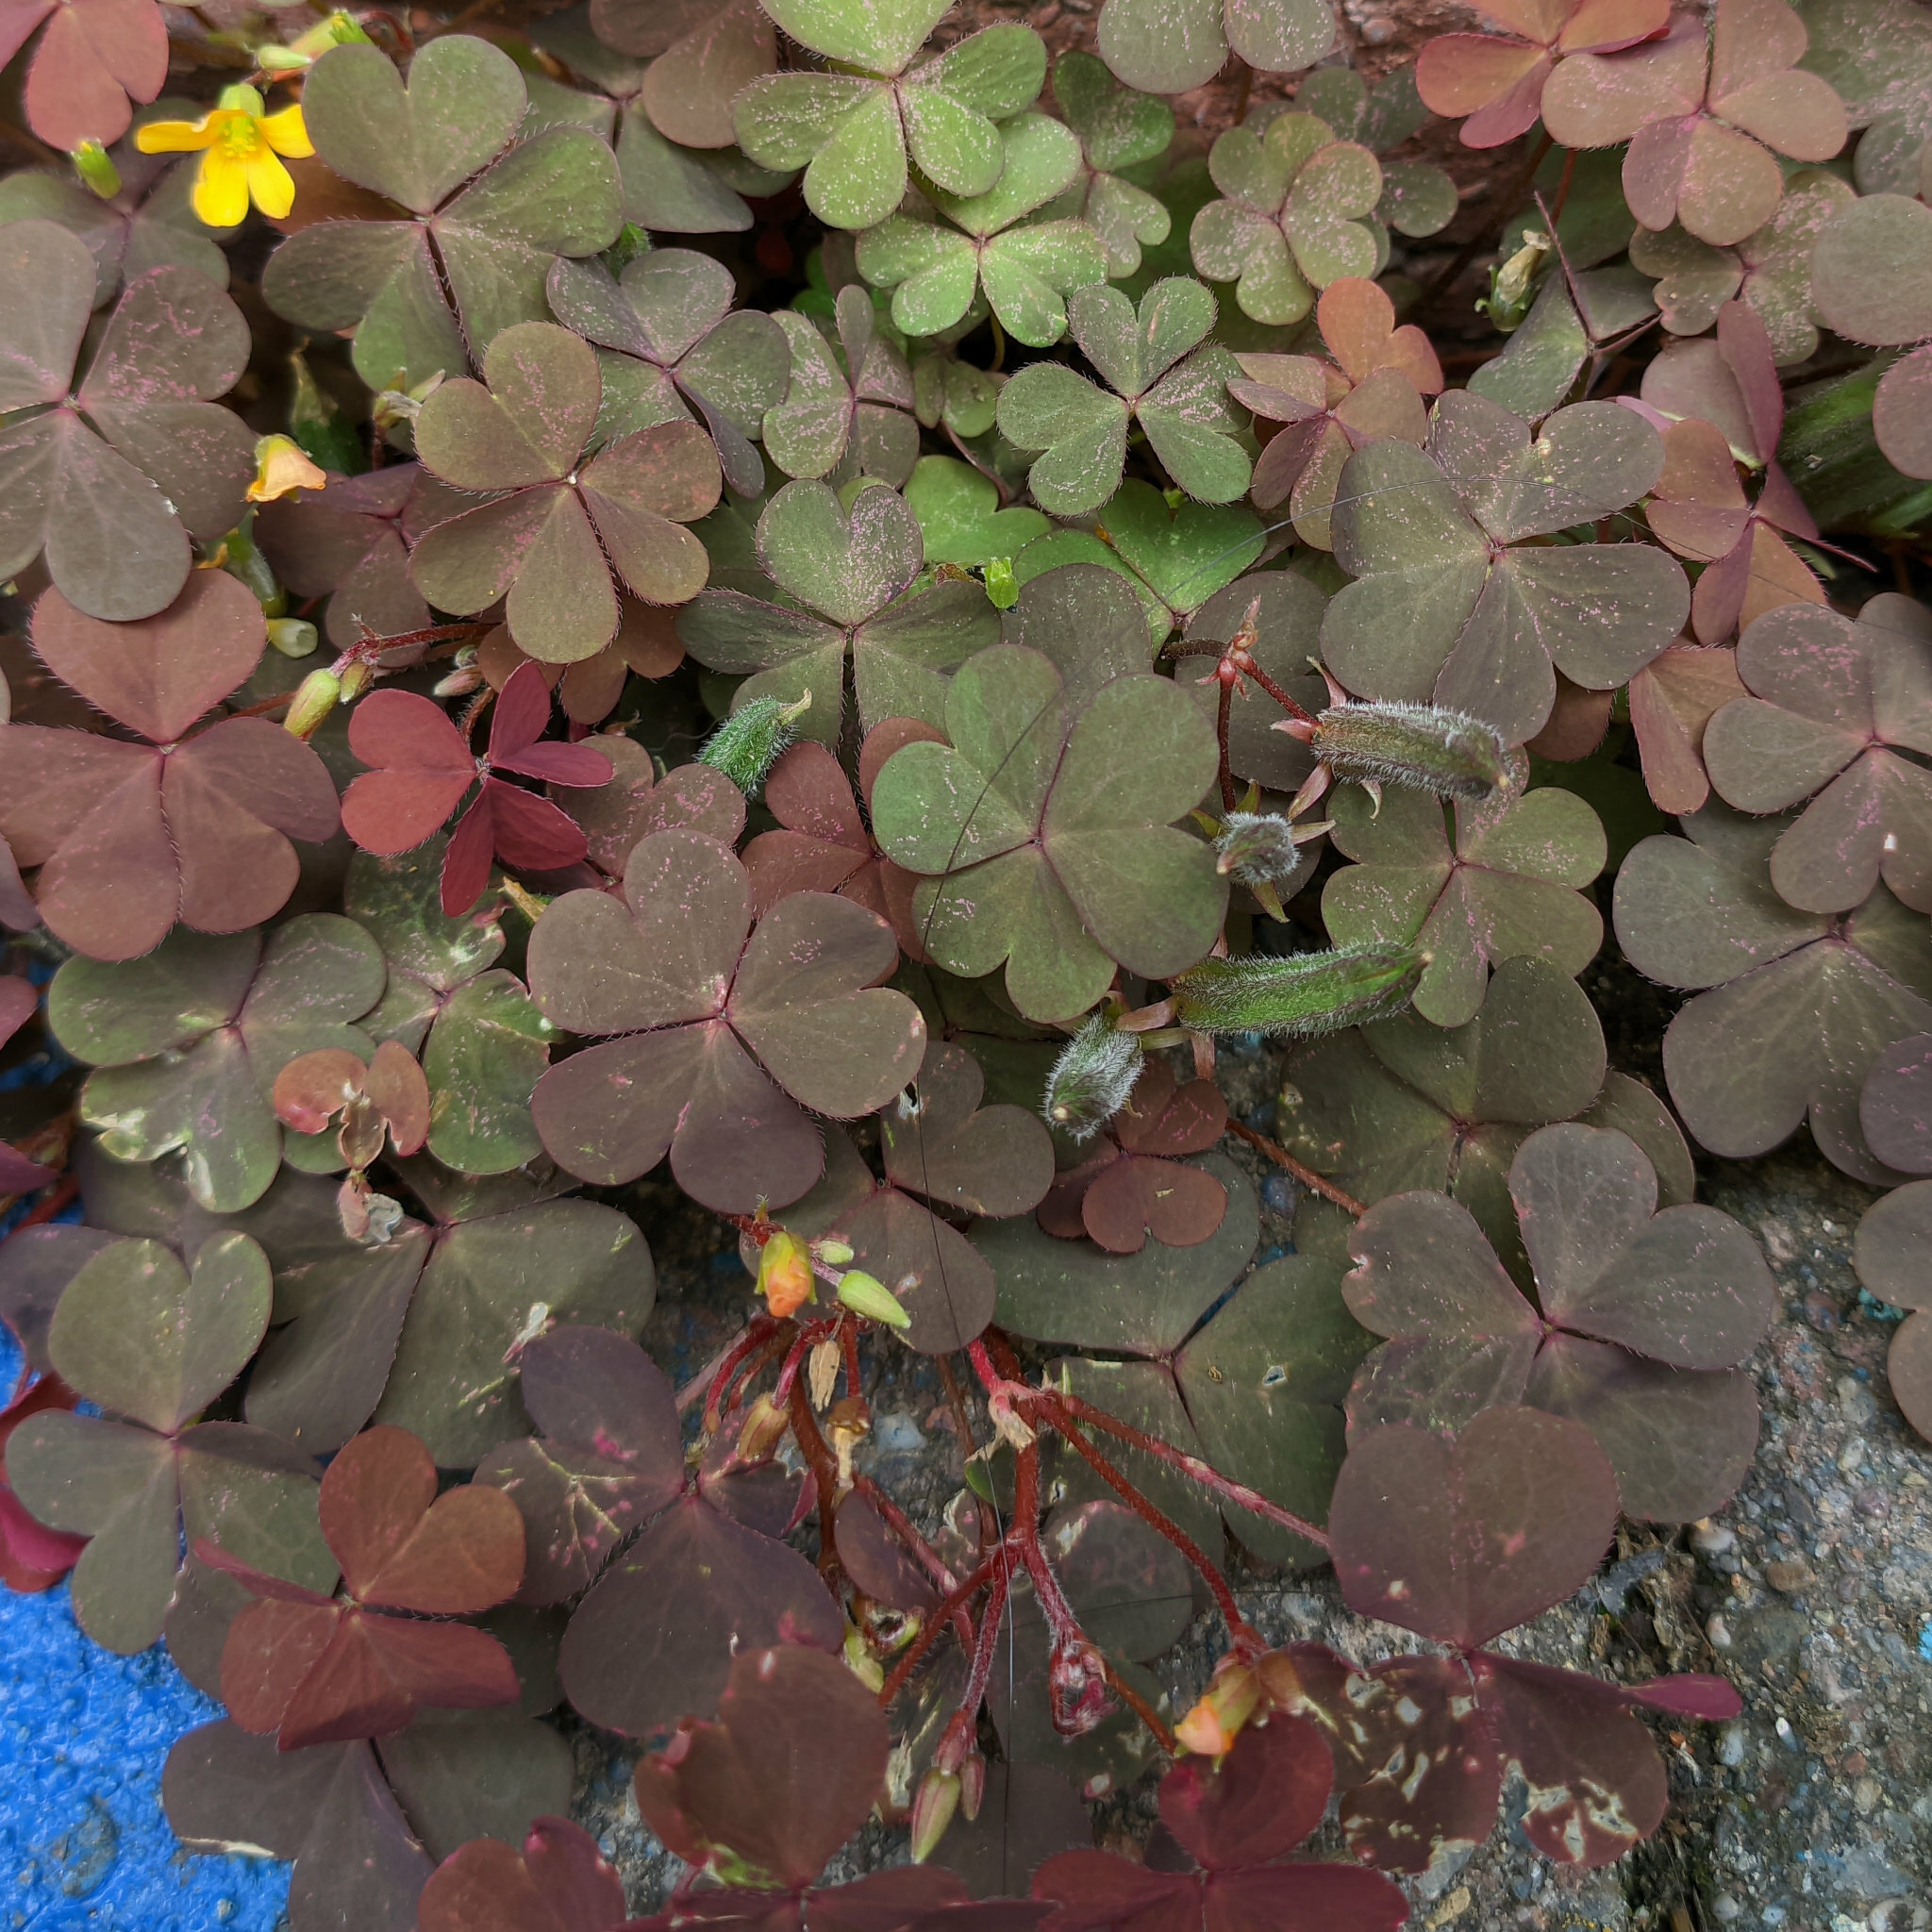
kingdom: Plantae
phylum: Tracheophyta
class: Magnoliopsida
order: Oxalidales
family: Oxalidaceae
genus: Oxalis
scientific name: Oxalis corniculata
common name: Procumbent yellow-sorrel
